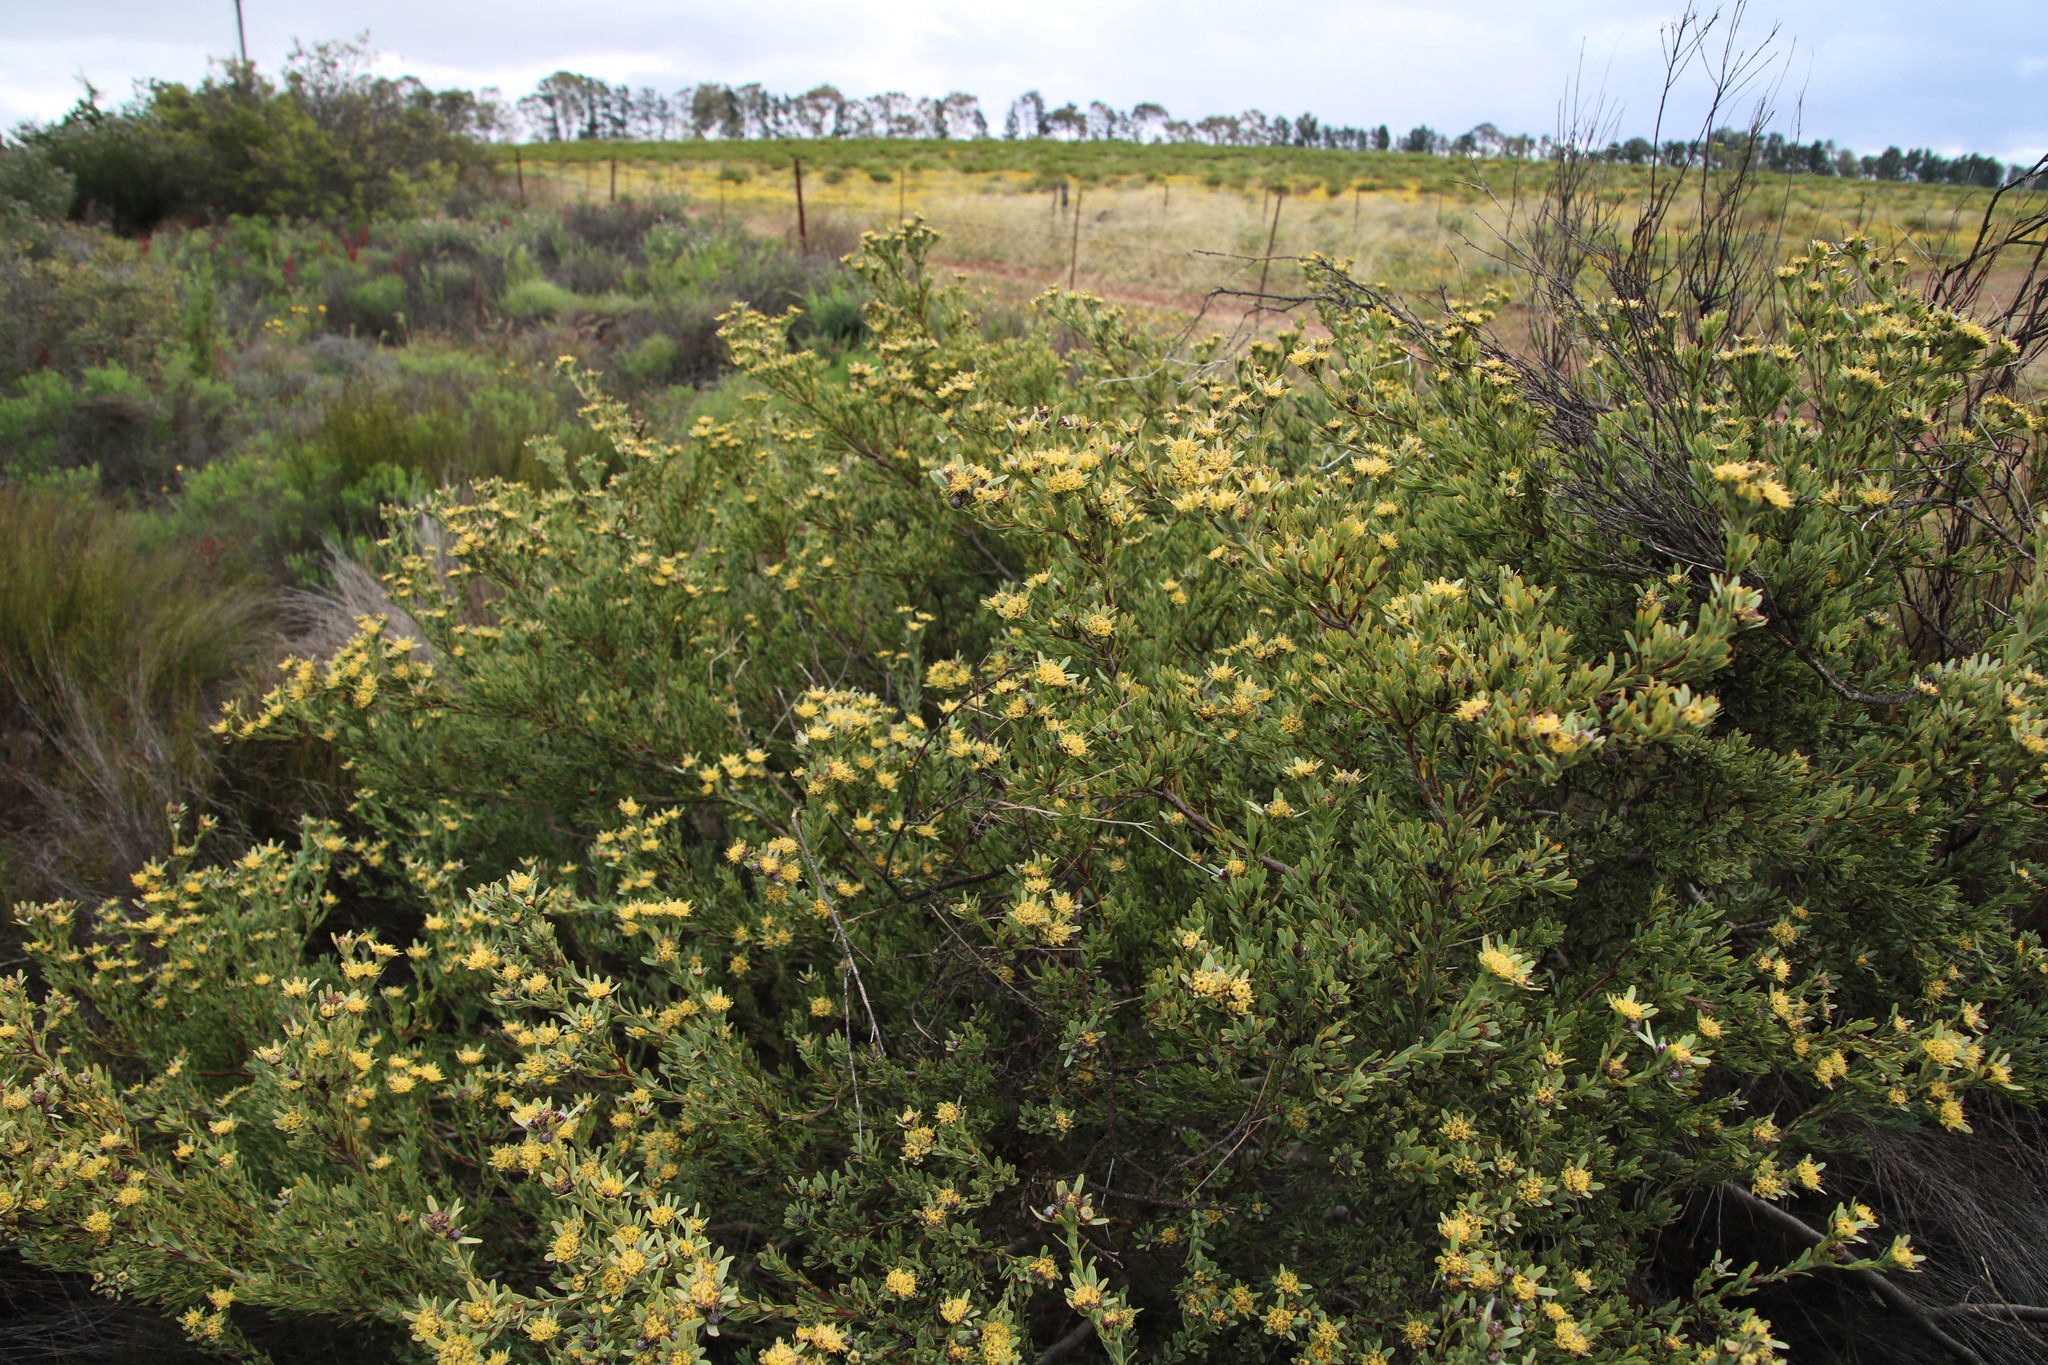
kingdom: Plantae
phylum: Tracheophyta
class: Magnoliopsida
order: Proteales
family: Proteaceae
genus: Leucadendron
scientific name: Leucadendron remotum
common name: Nieuwoudtville conebush
